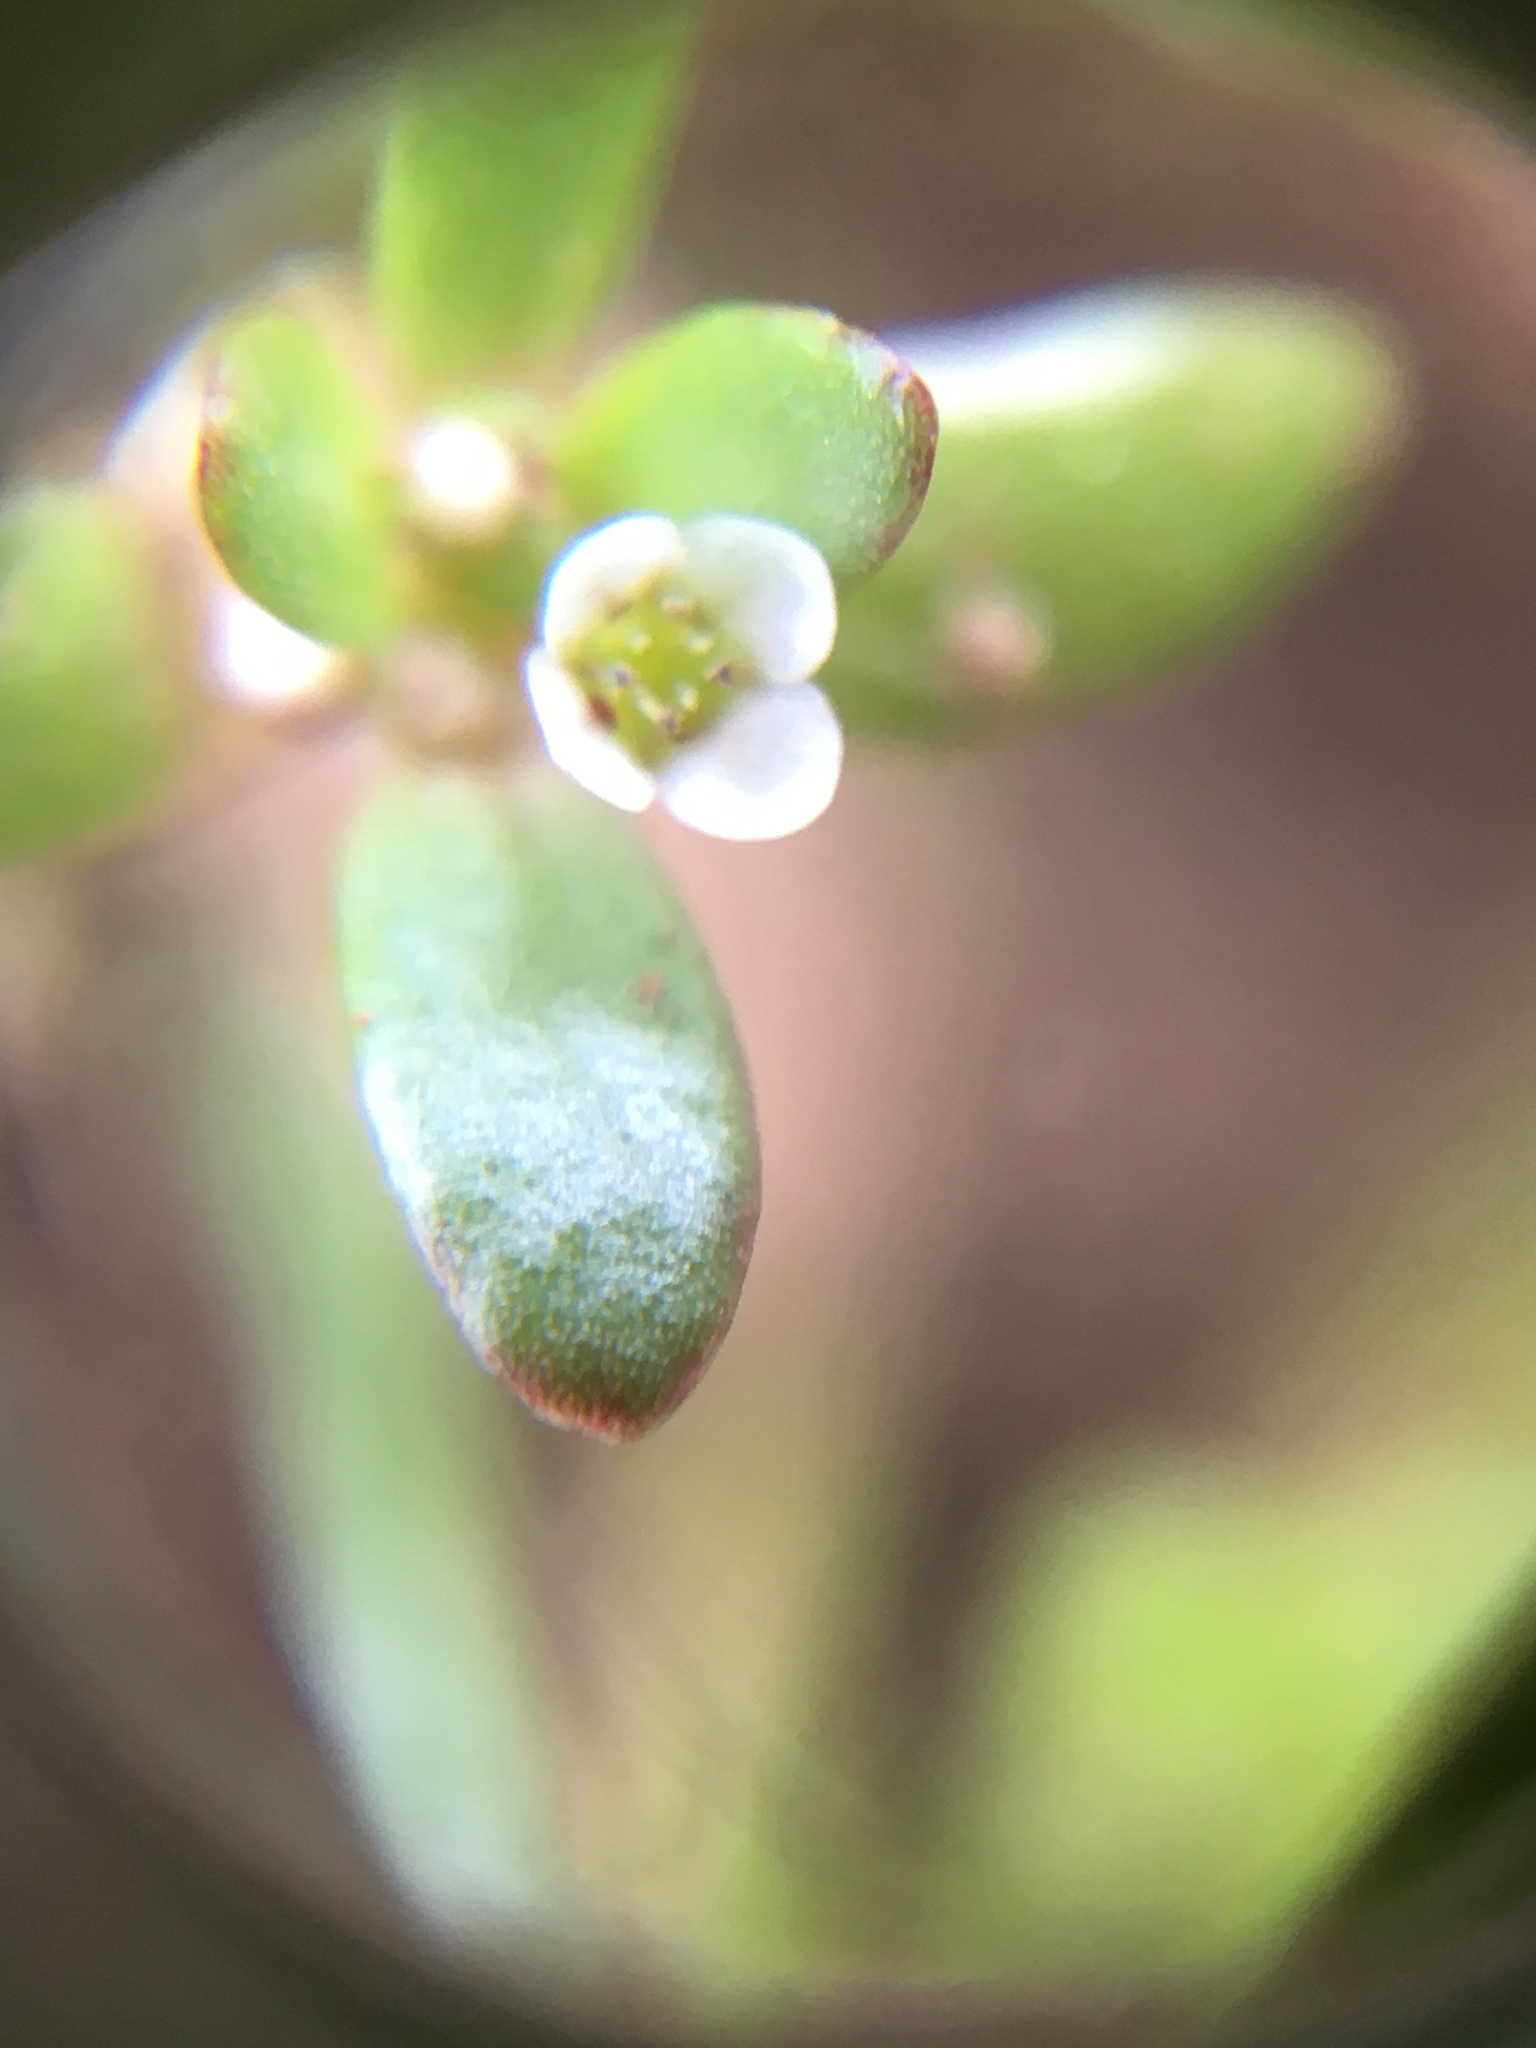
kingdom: Plantae
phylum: Tracheophyta
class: Magnoliopsida
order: Saxifragales
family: Crassulaceae
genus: Crassula
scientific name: Crassula natans
